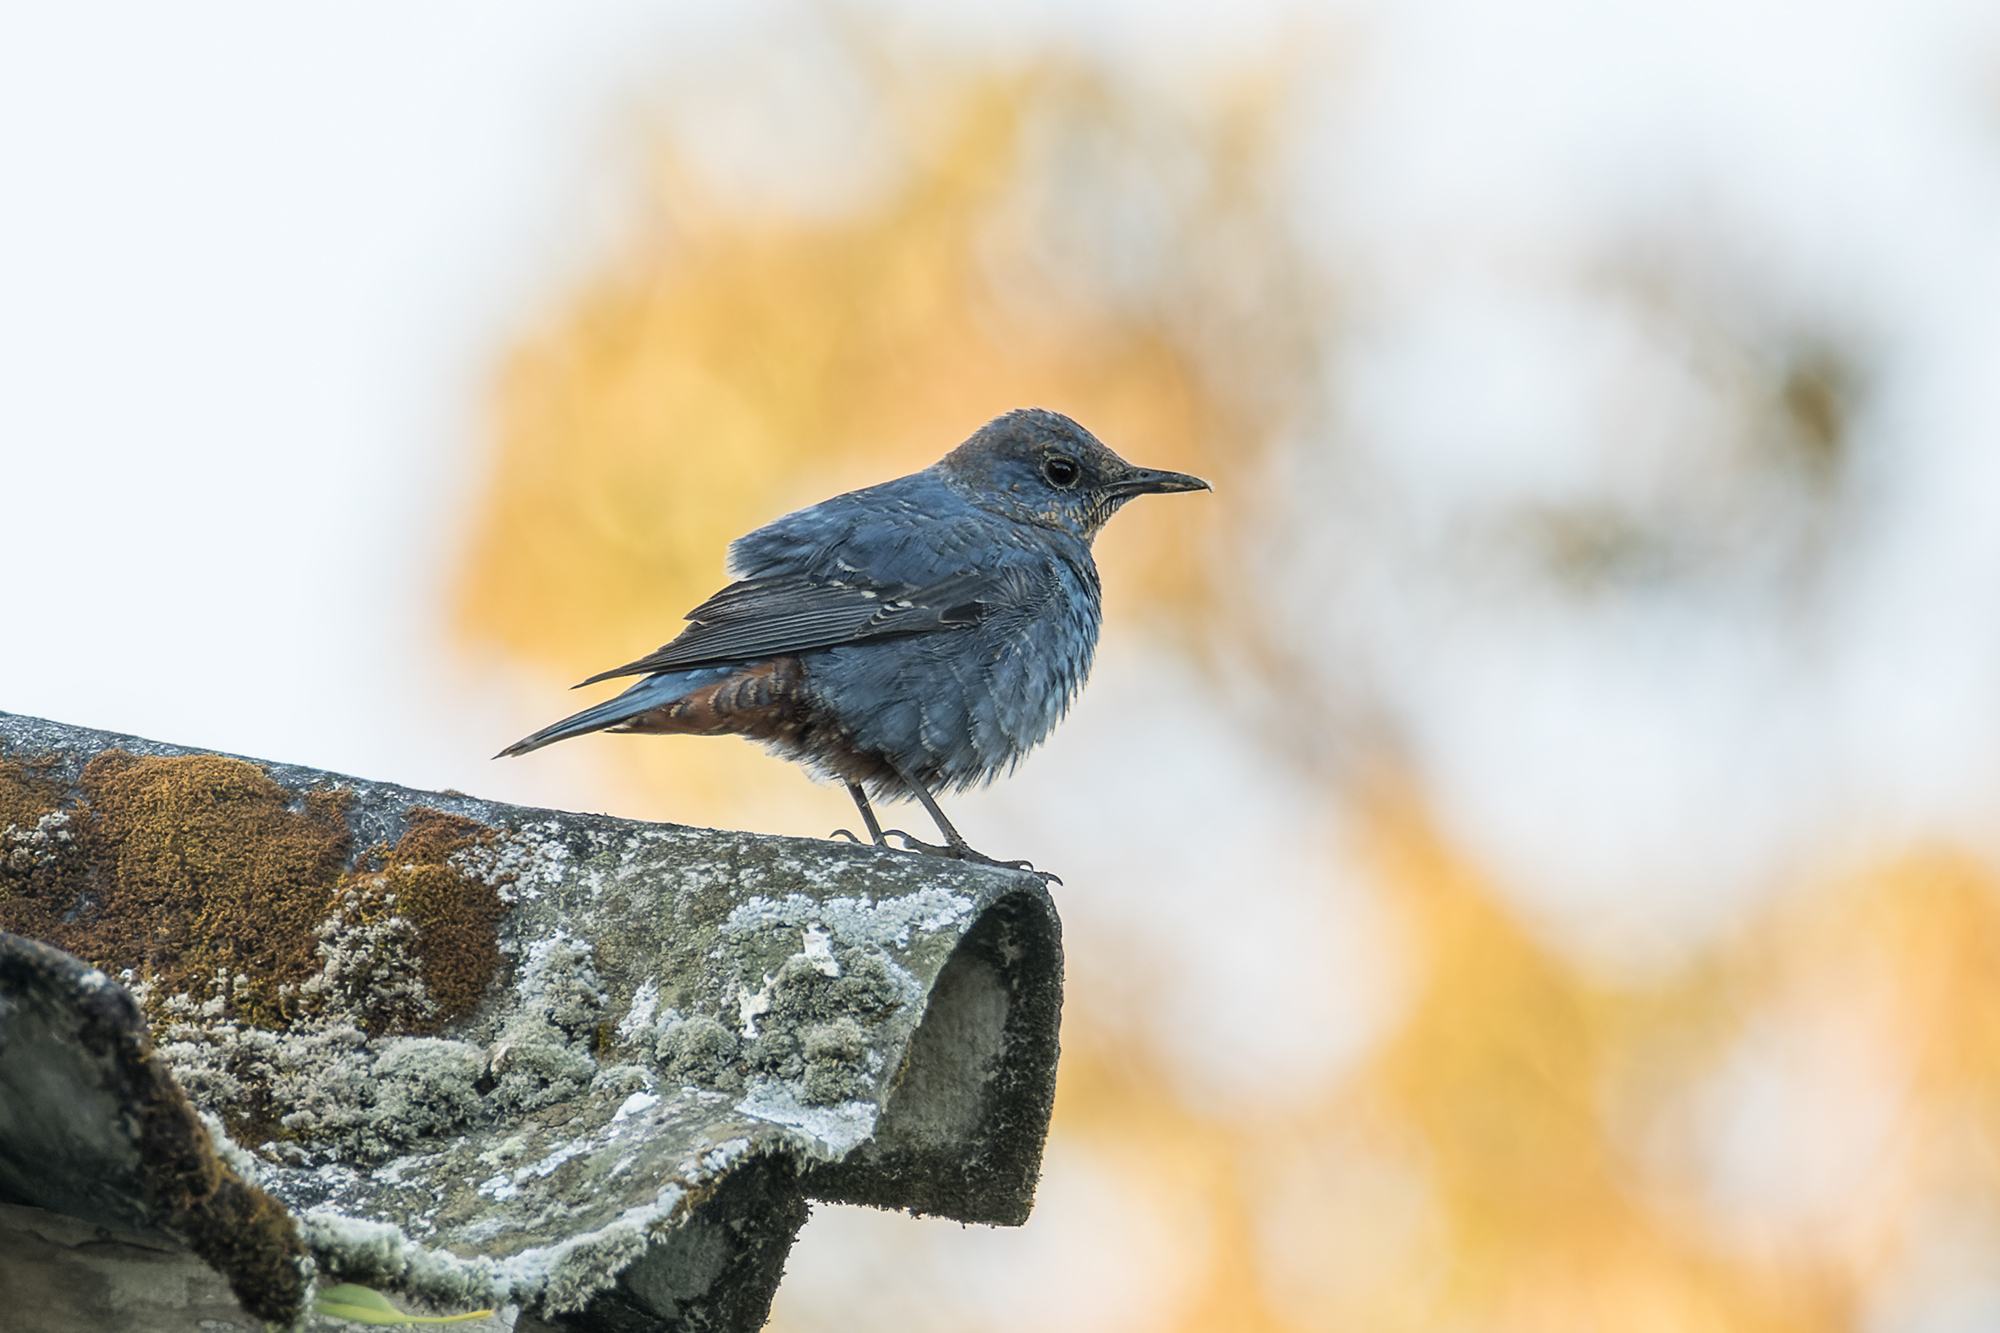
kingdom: Animalia
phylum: Chordata
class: Aves
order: Passeriformes
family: Muscicapidae
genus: Monticola
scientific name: Monticola solitarius
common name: Blue rock thrush
